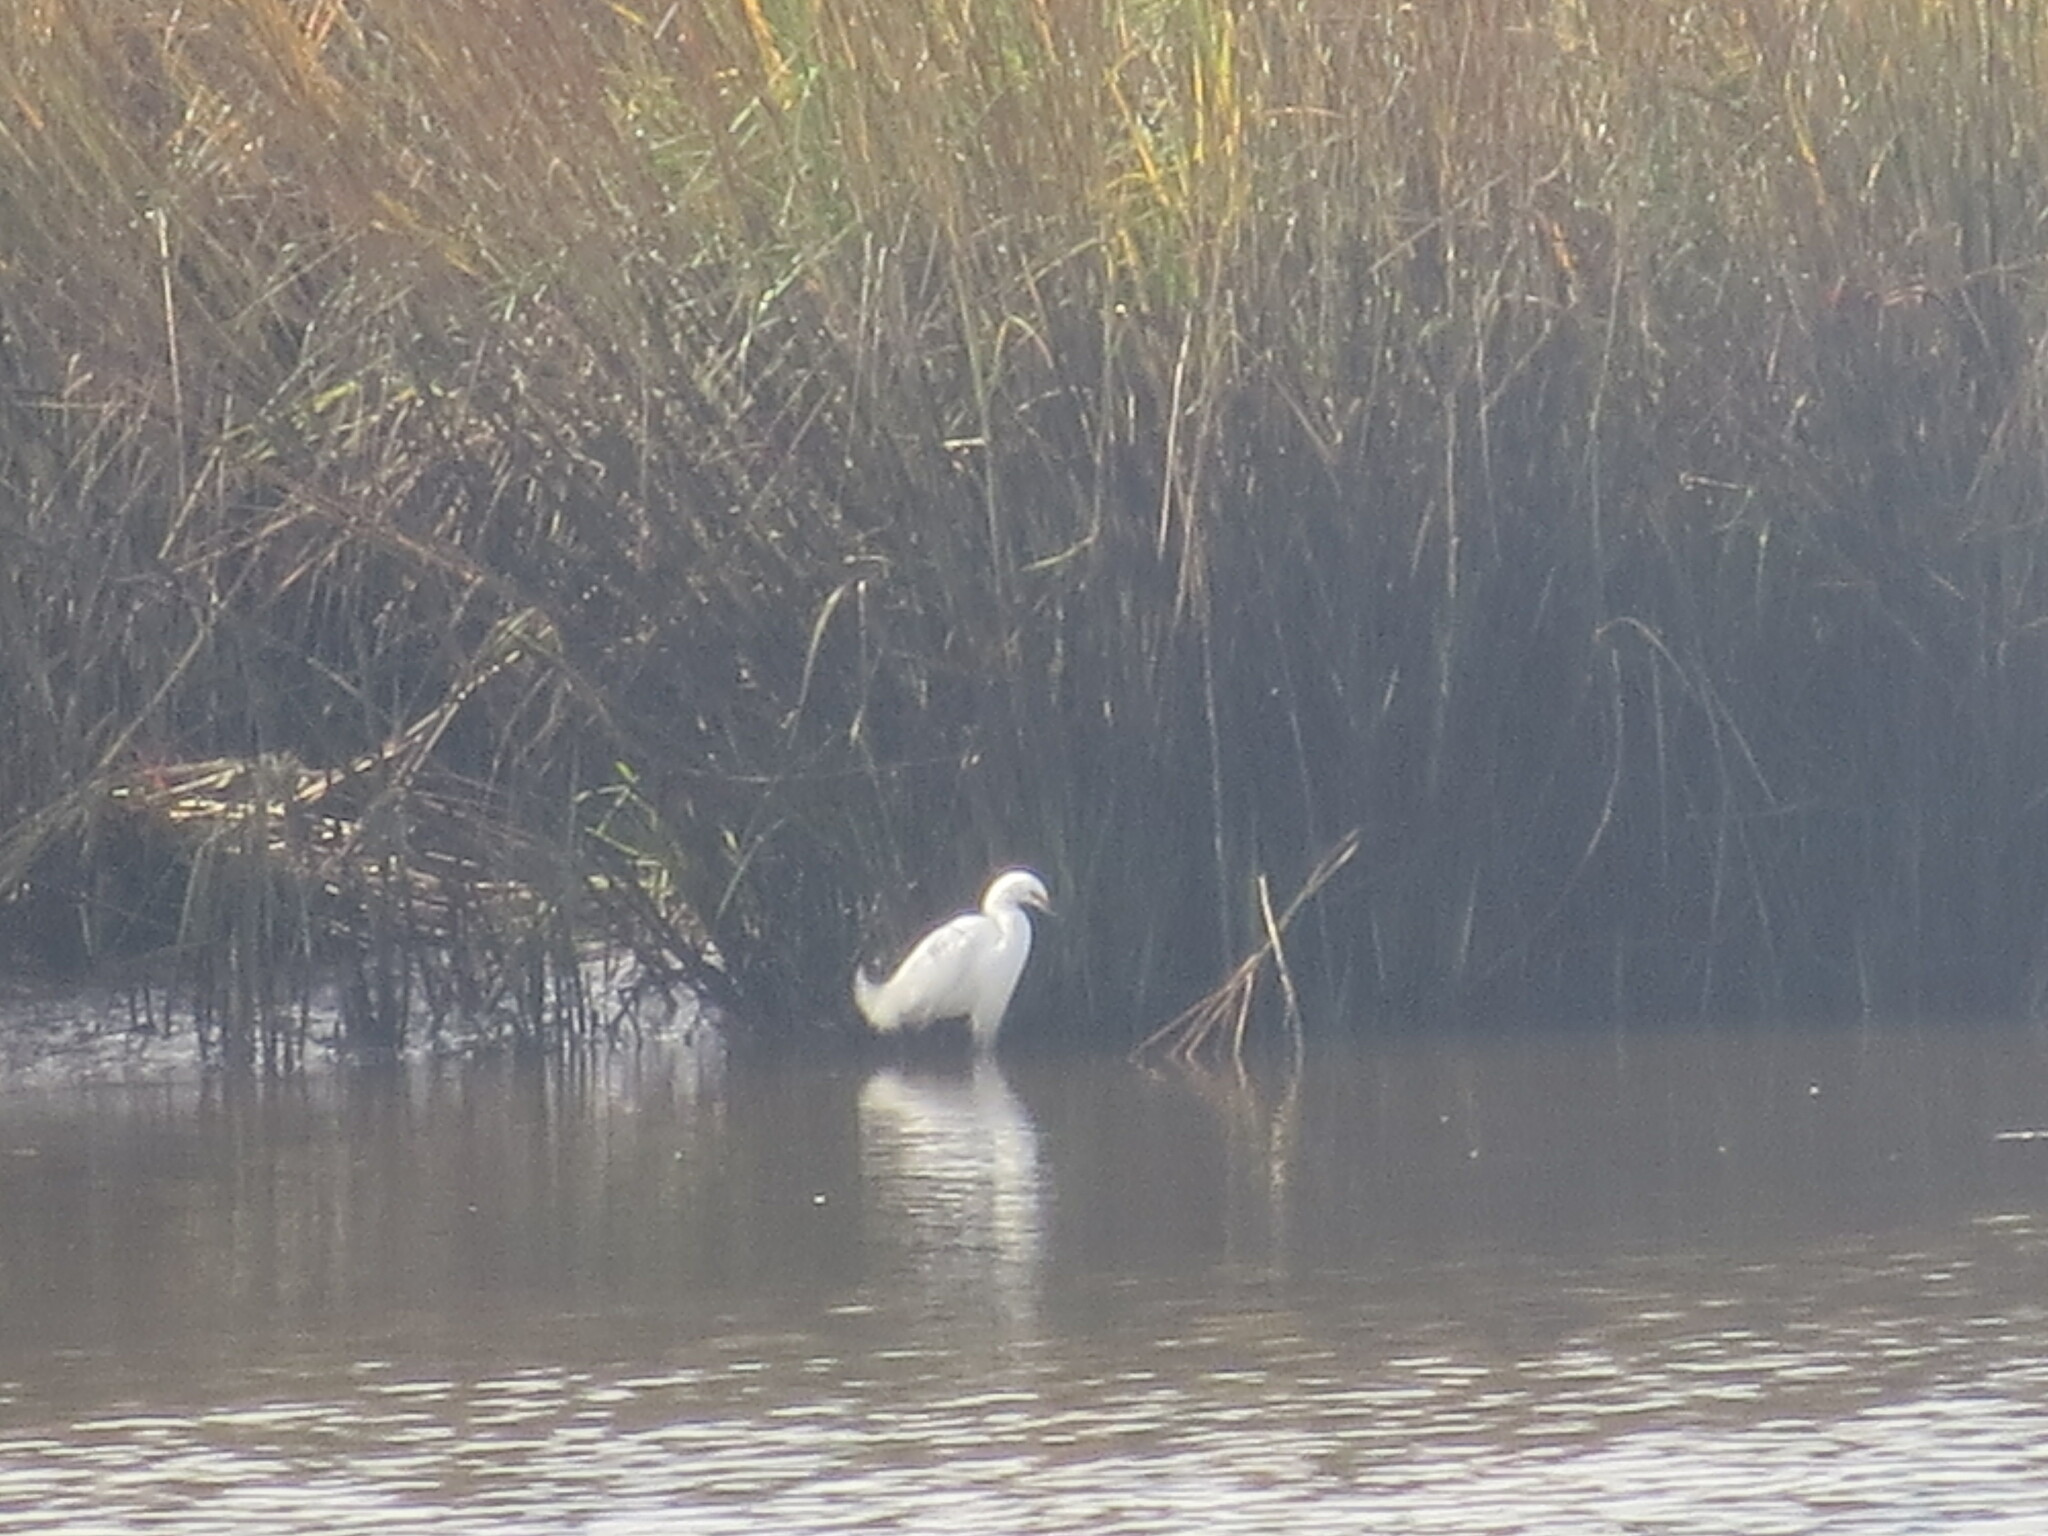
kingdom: Animalia
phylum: Chordata
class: Aves
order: Pelecaniformes
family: Ardeidae
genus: Egretta
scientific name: Egretta thula
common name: Snowy egret
